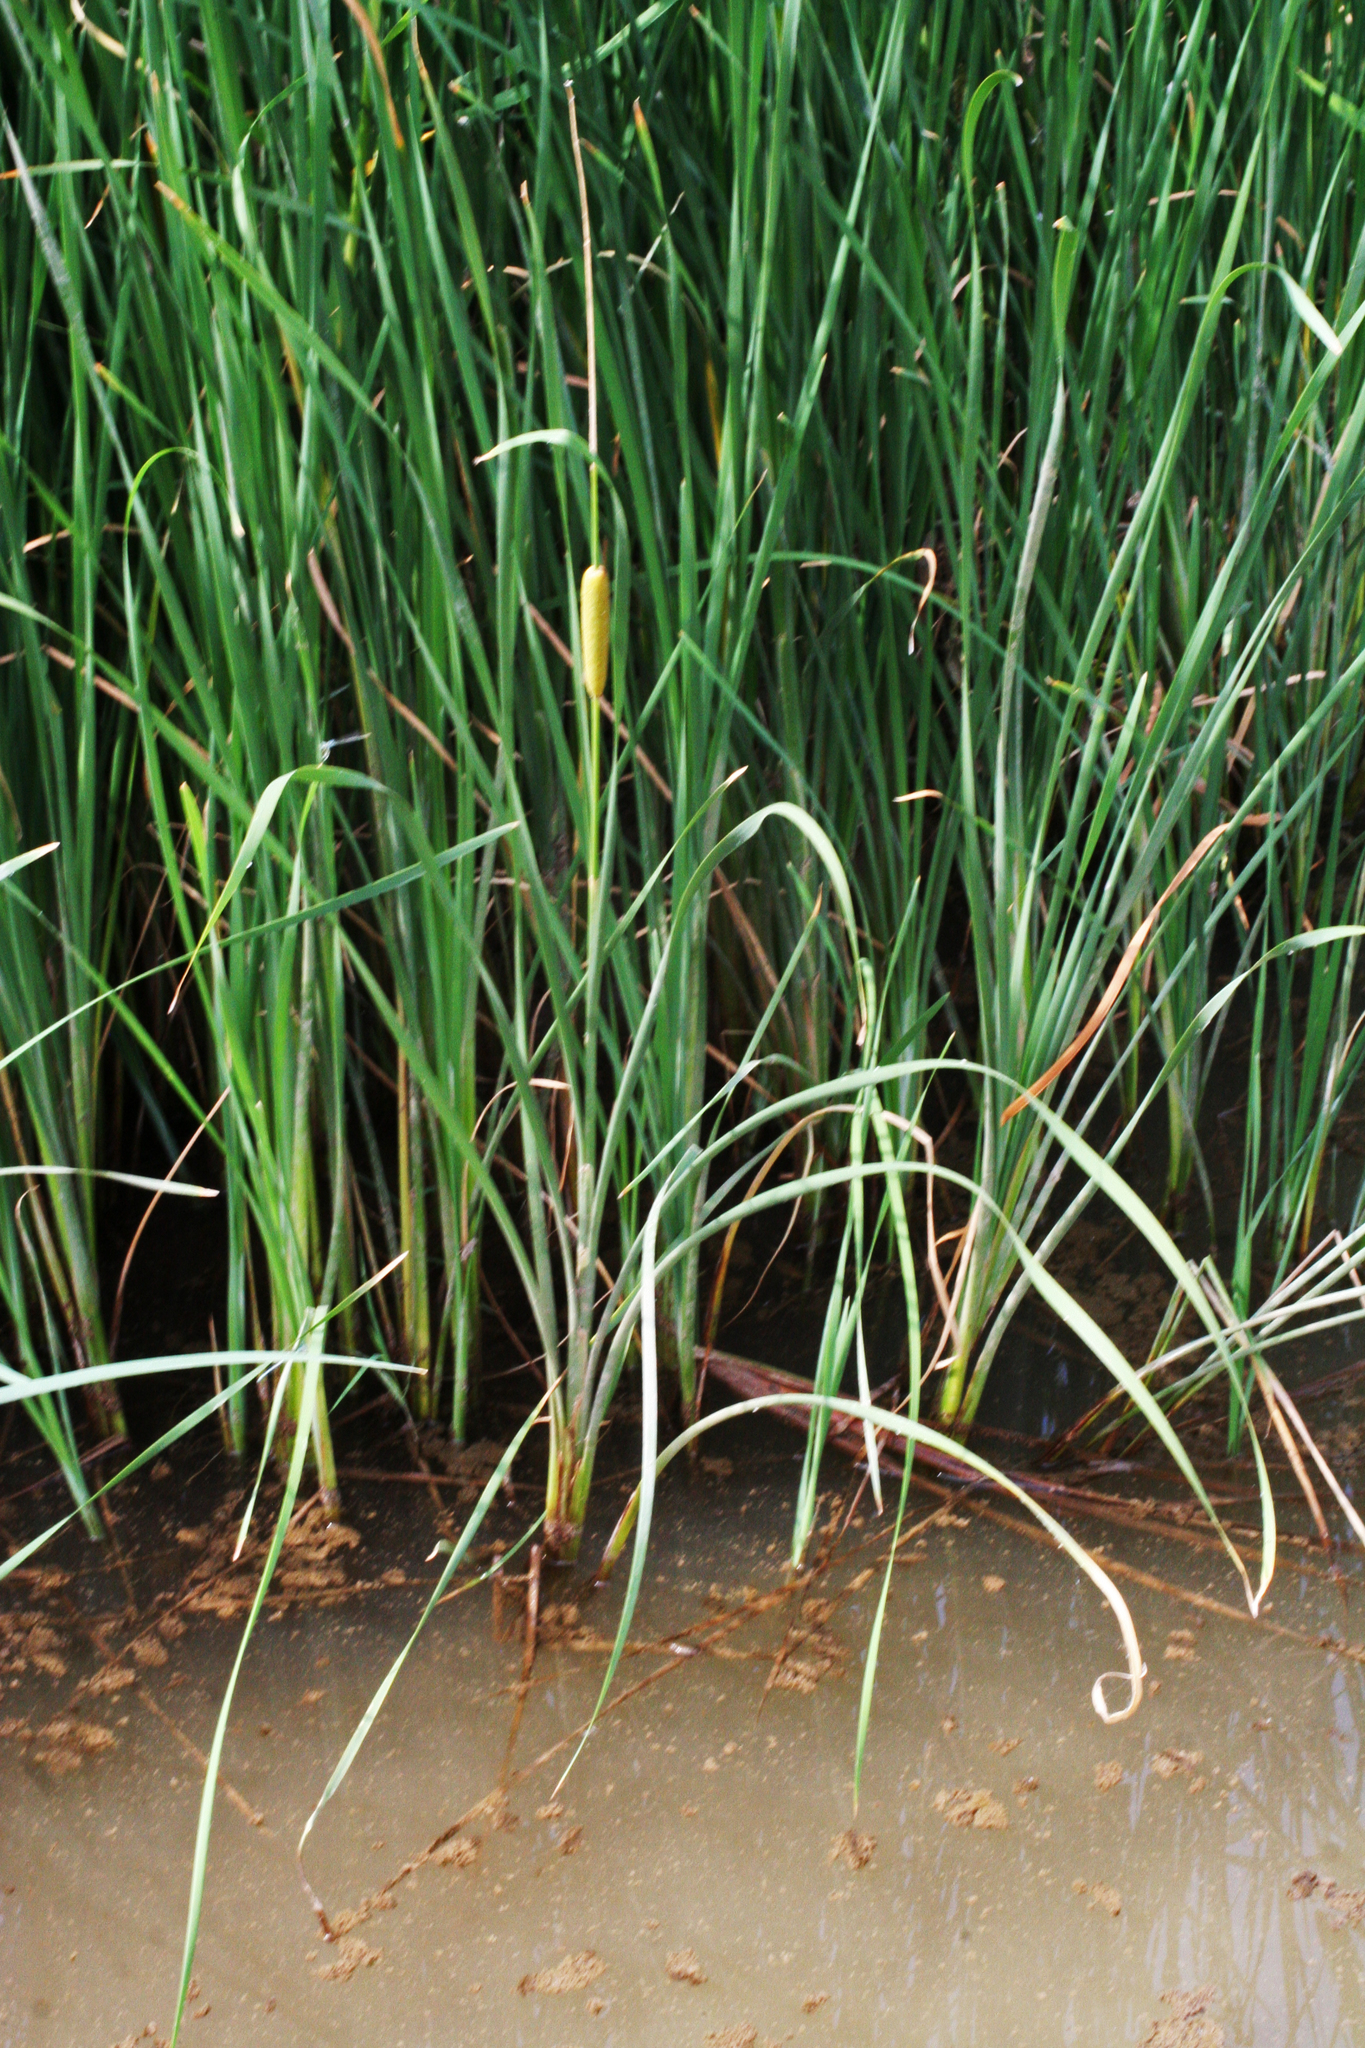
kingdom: Plantae
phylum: Tracheophyta
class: Liliopsida
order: Poales
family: Typhaceae
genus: Typha
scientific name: Typha laxmannii
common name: Laxman’s bulrush
